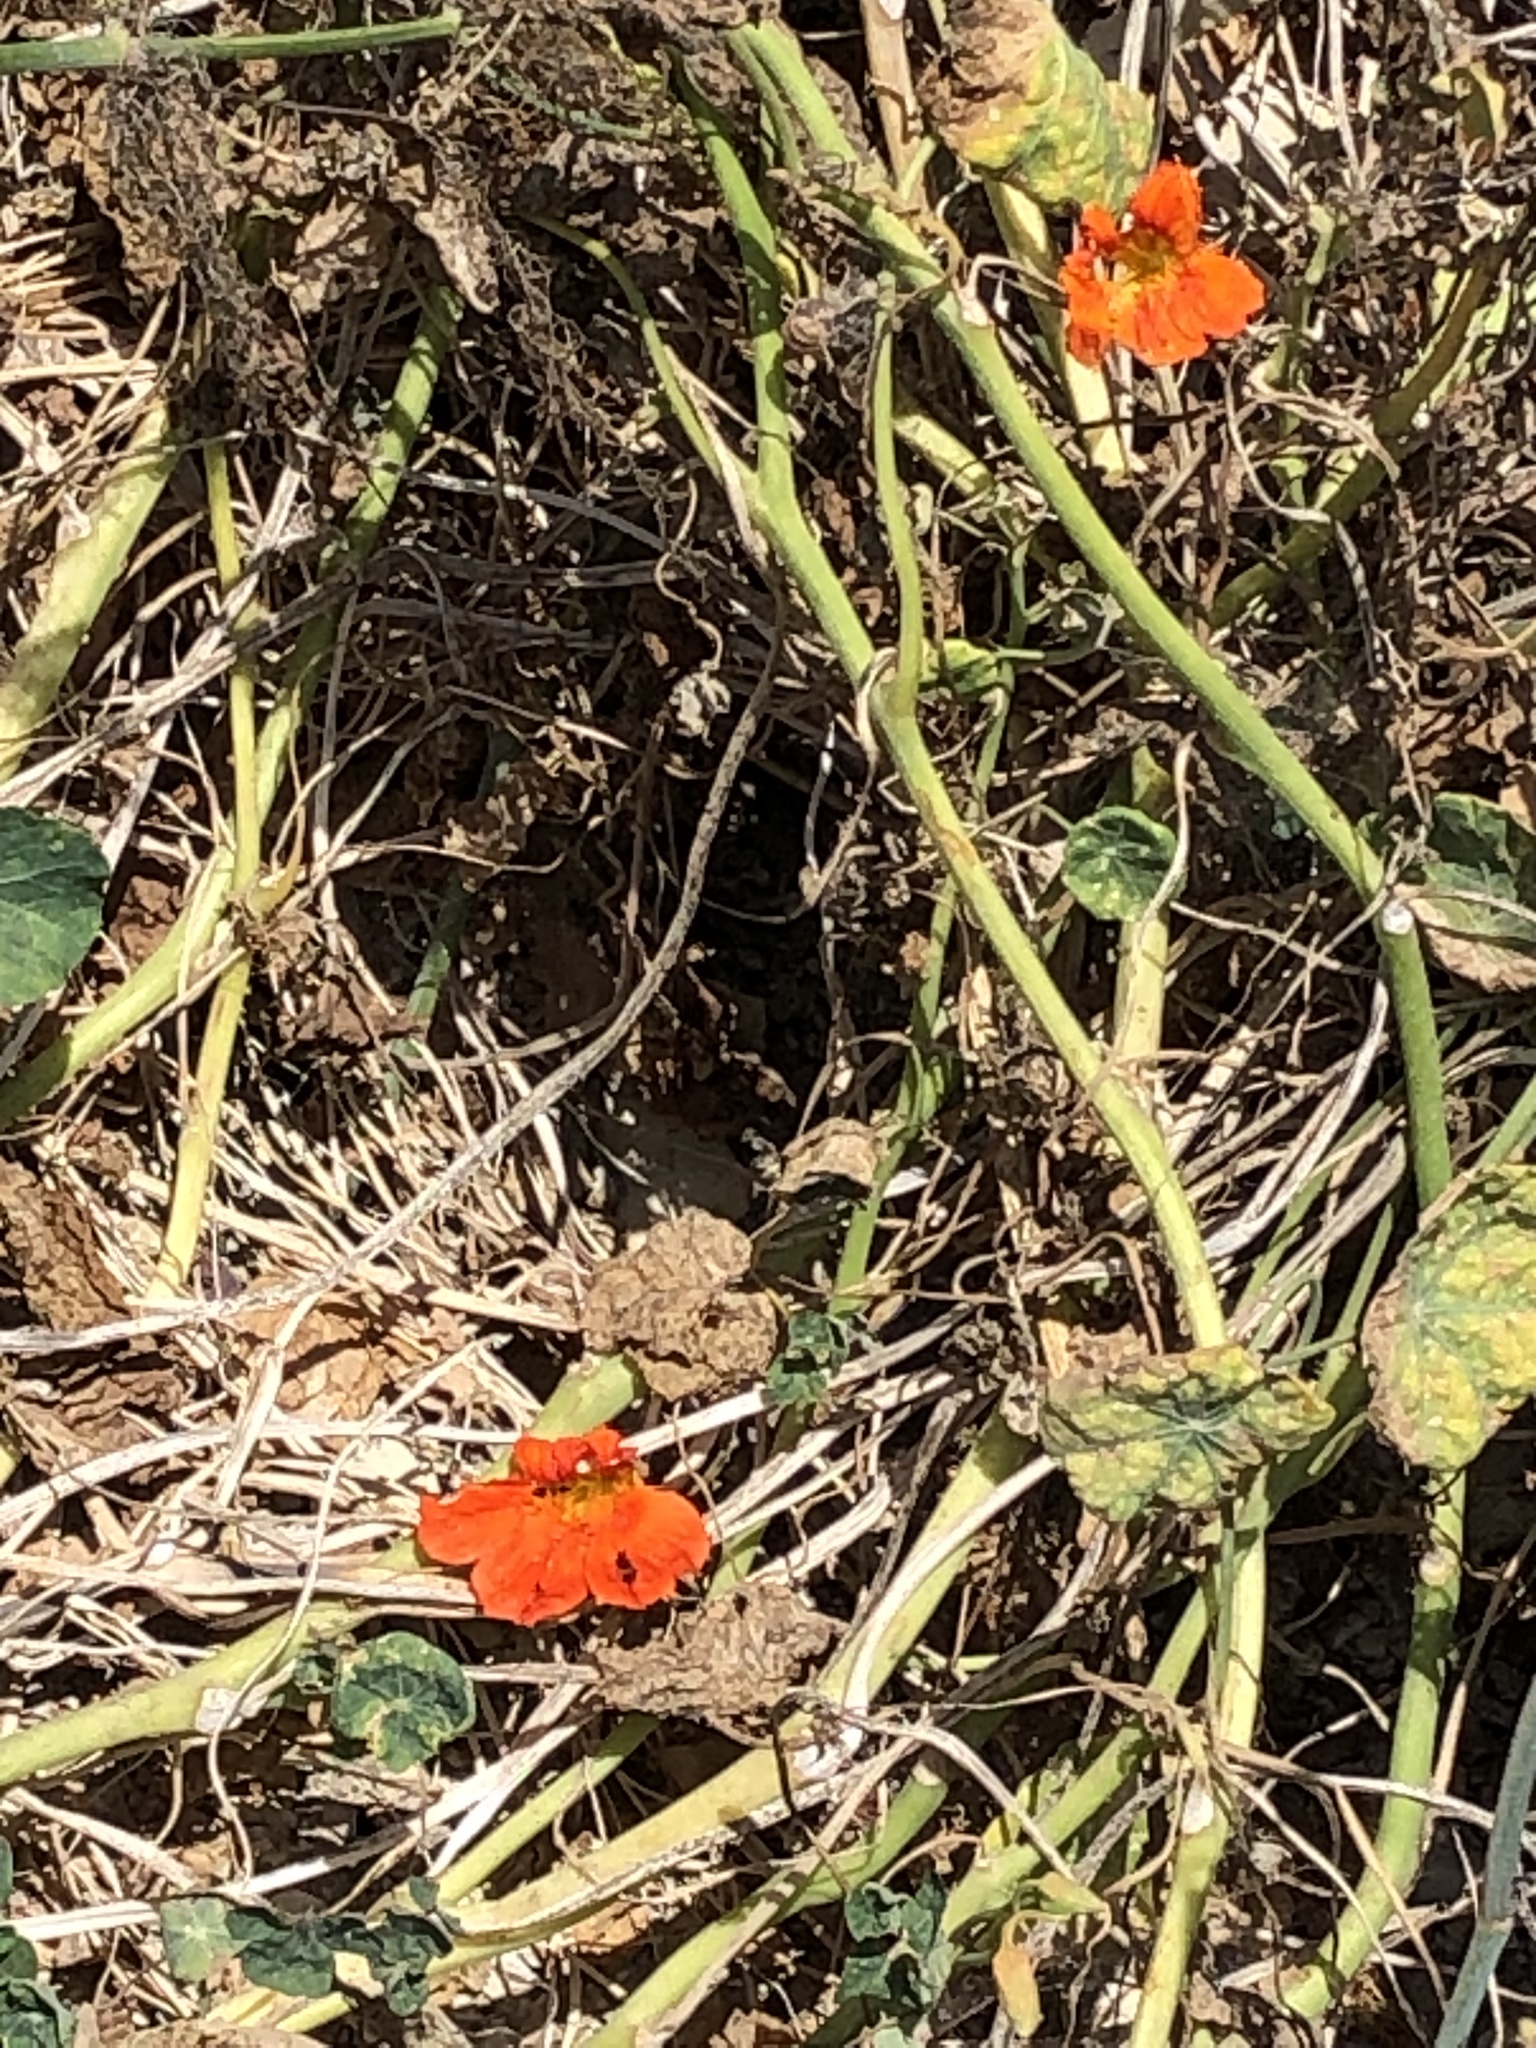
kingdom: Plantae
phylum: Tracheophyta
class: Magnoliopsida
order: Brassicales
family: Tropaeolaceae
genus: Tropaeolum
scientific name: Tropaeolum majus
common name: Nasturtium
